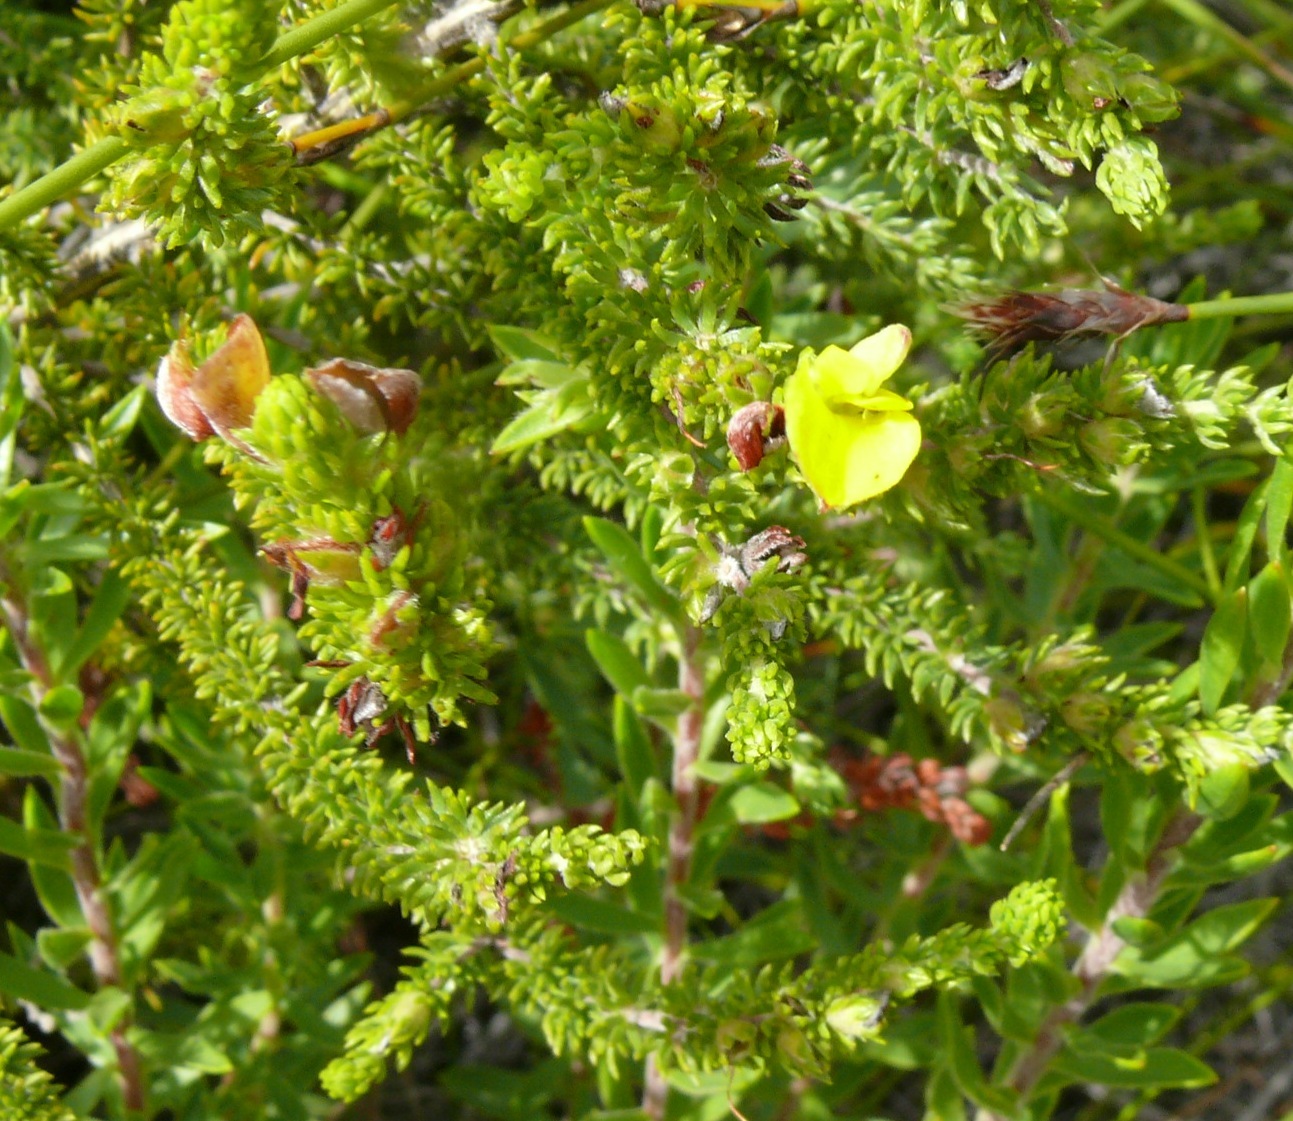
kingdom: Plantae
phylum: Tracheophyta
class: Magnoliopsida
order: Fabales
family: Fabaceae
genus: Aspalathus
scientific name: Aspalathus ciliaris
